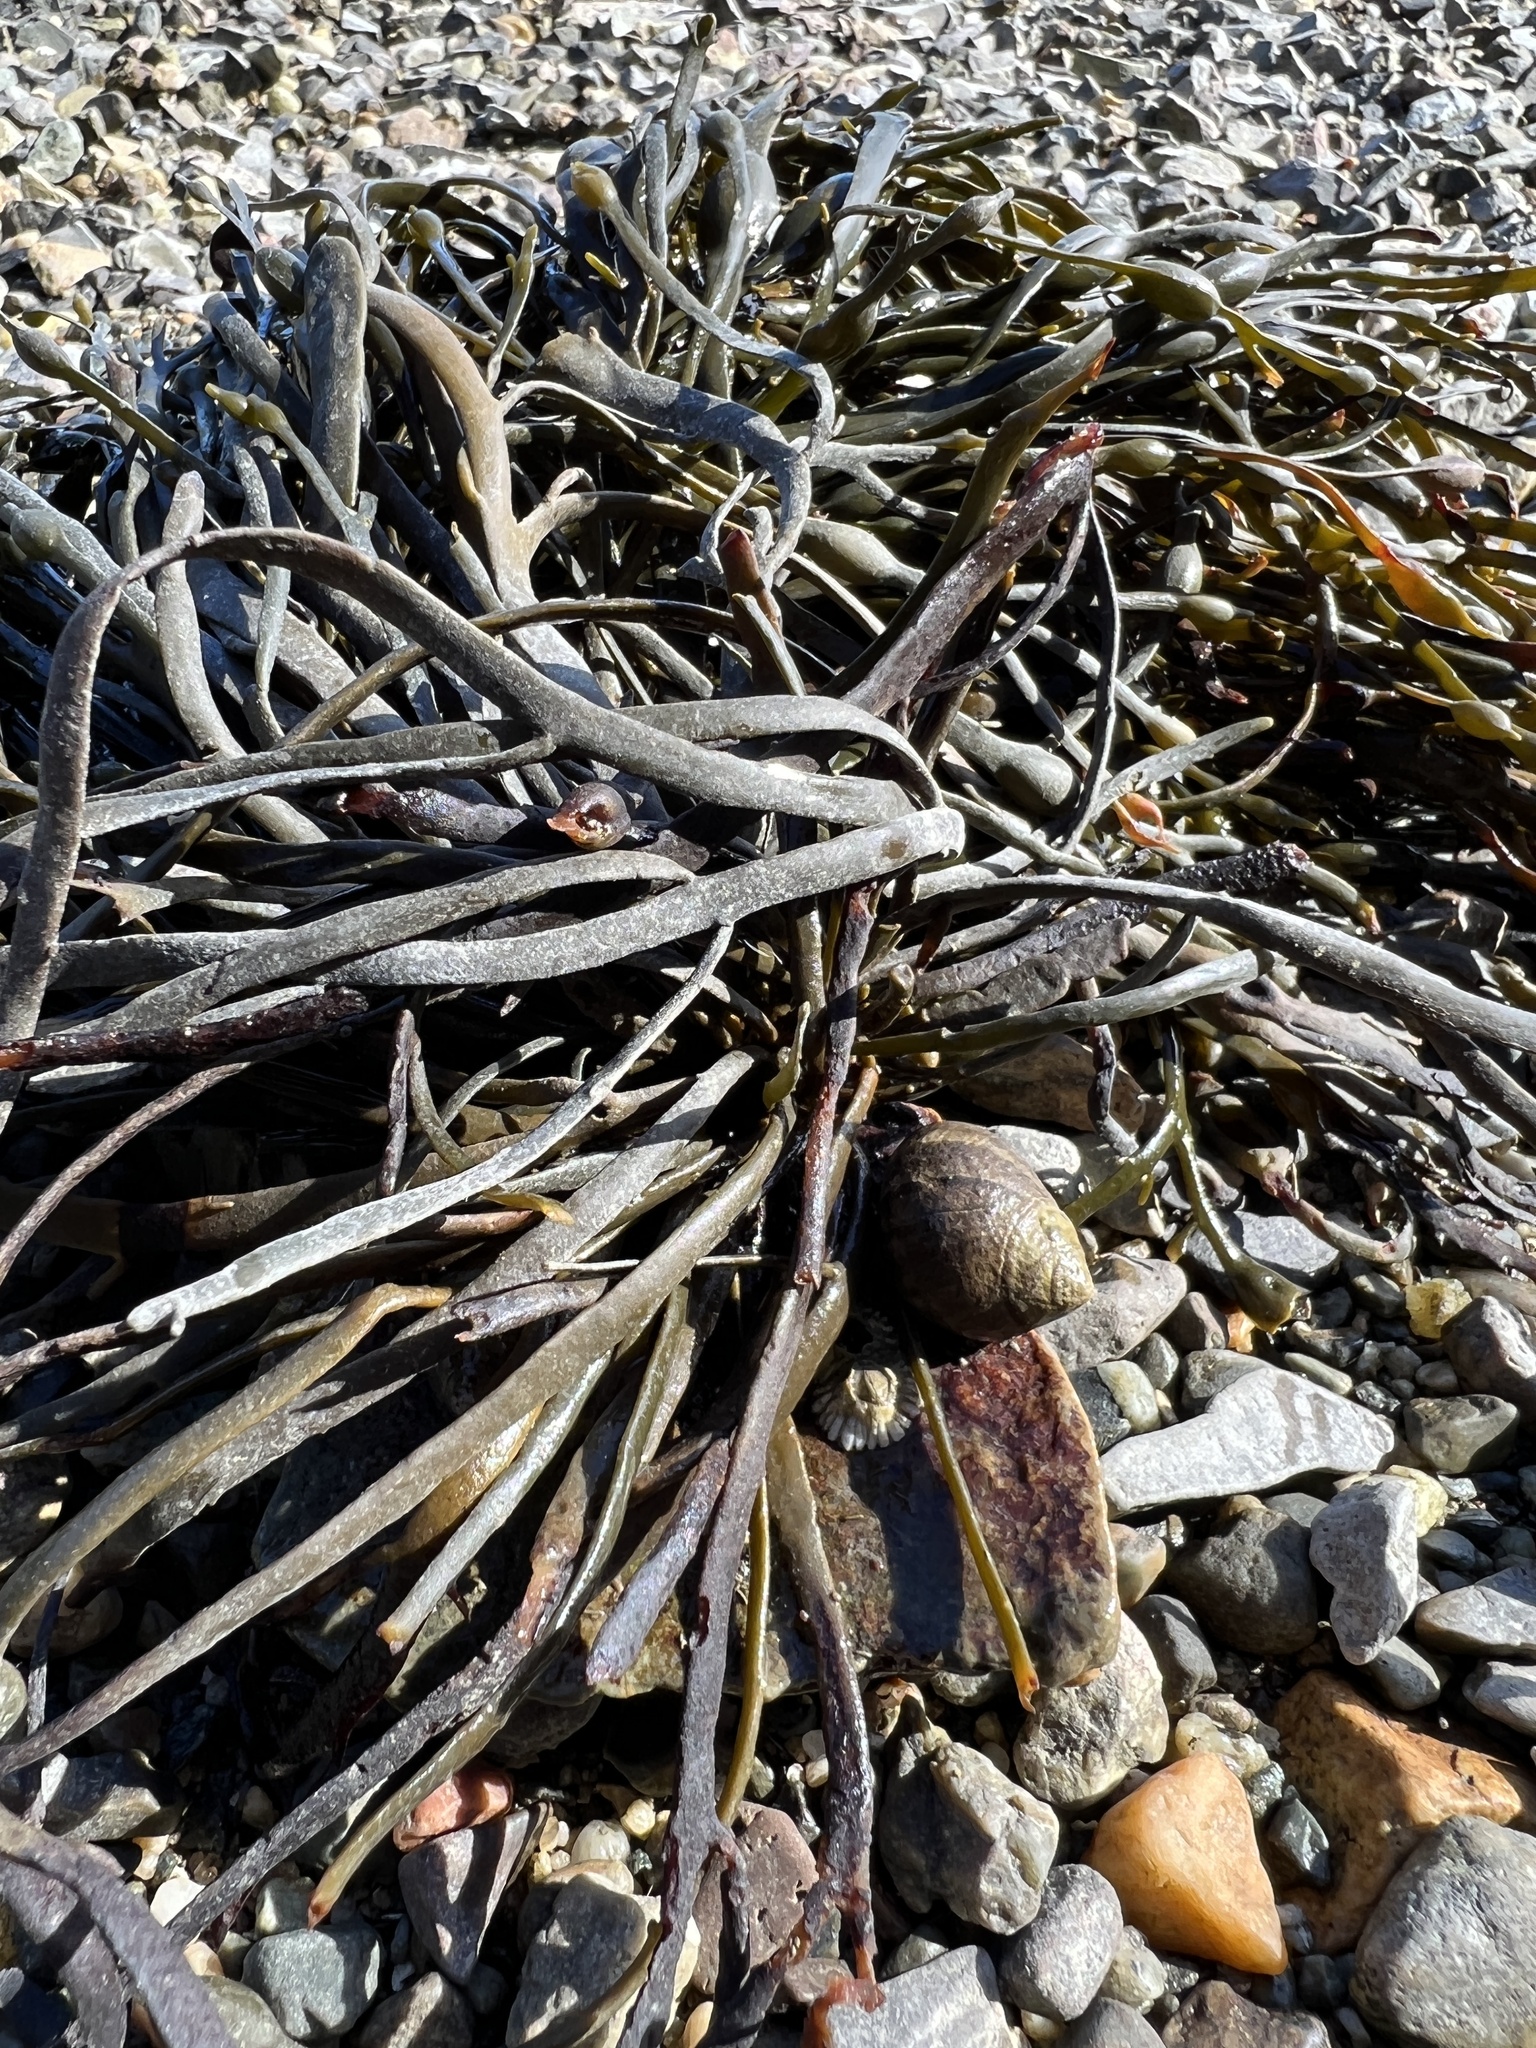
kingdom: Chromista
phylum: Ochrophyta
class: Phaeophyceae
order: Fucales
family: Fucaceae
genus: Ascophyllum
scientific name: Ascophyllum nodosum
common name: Knotted wrack
